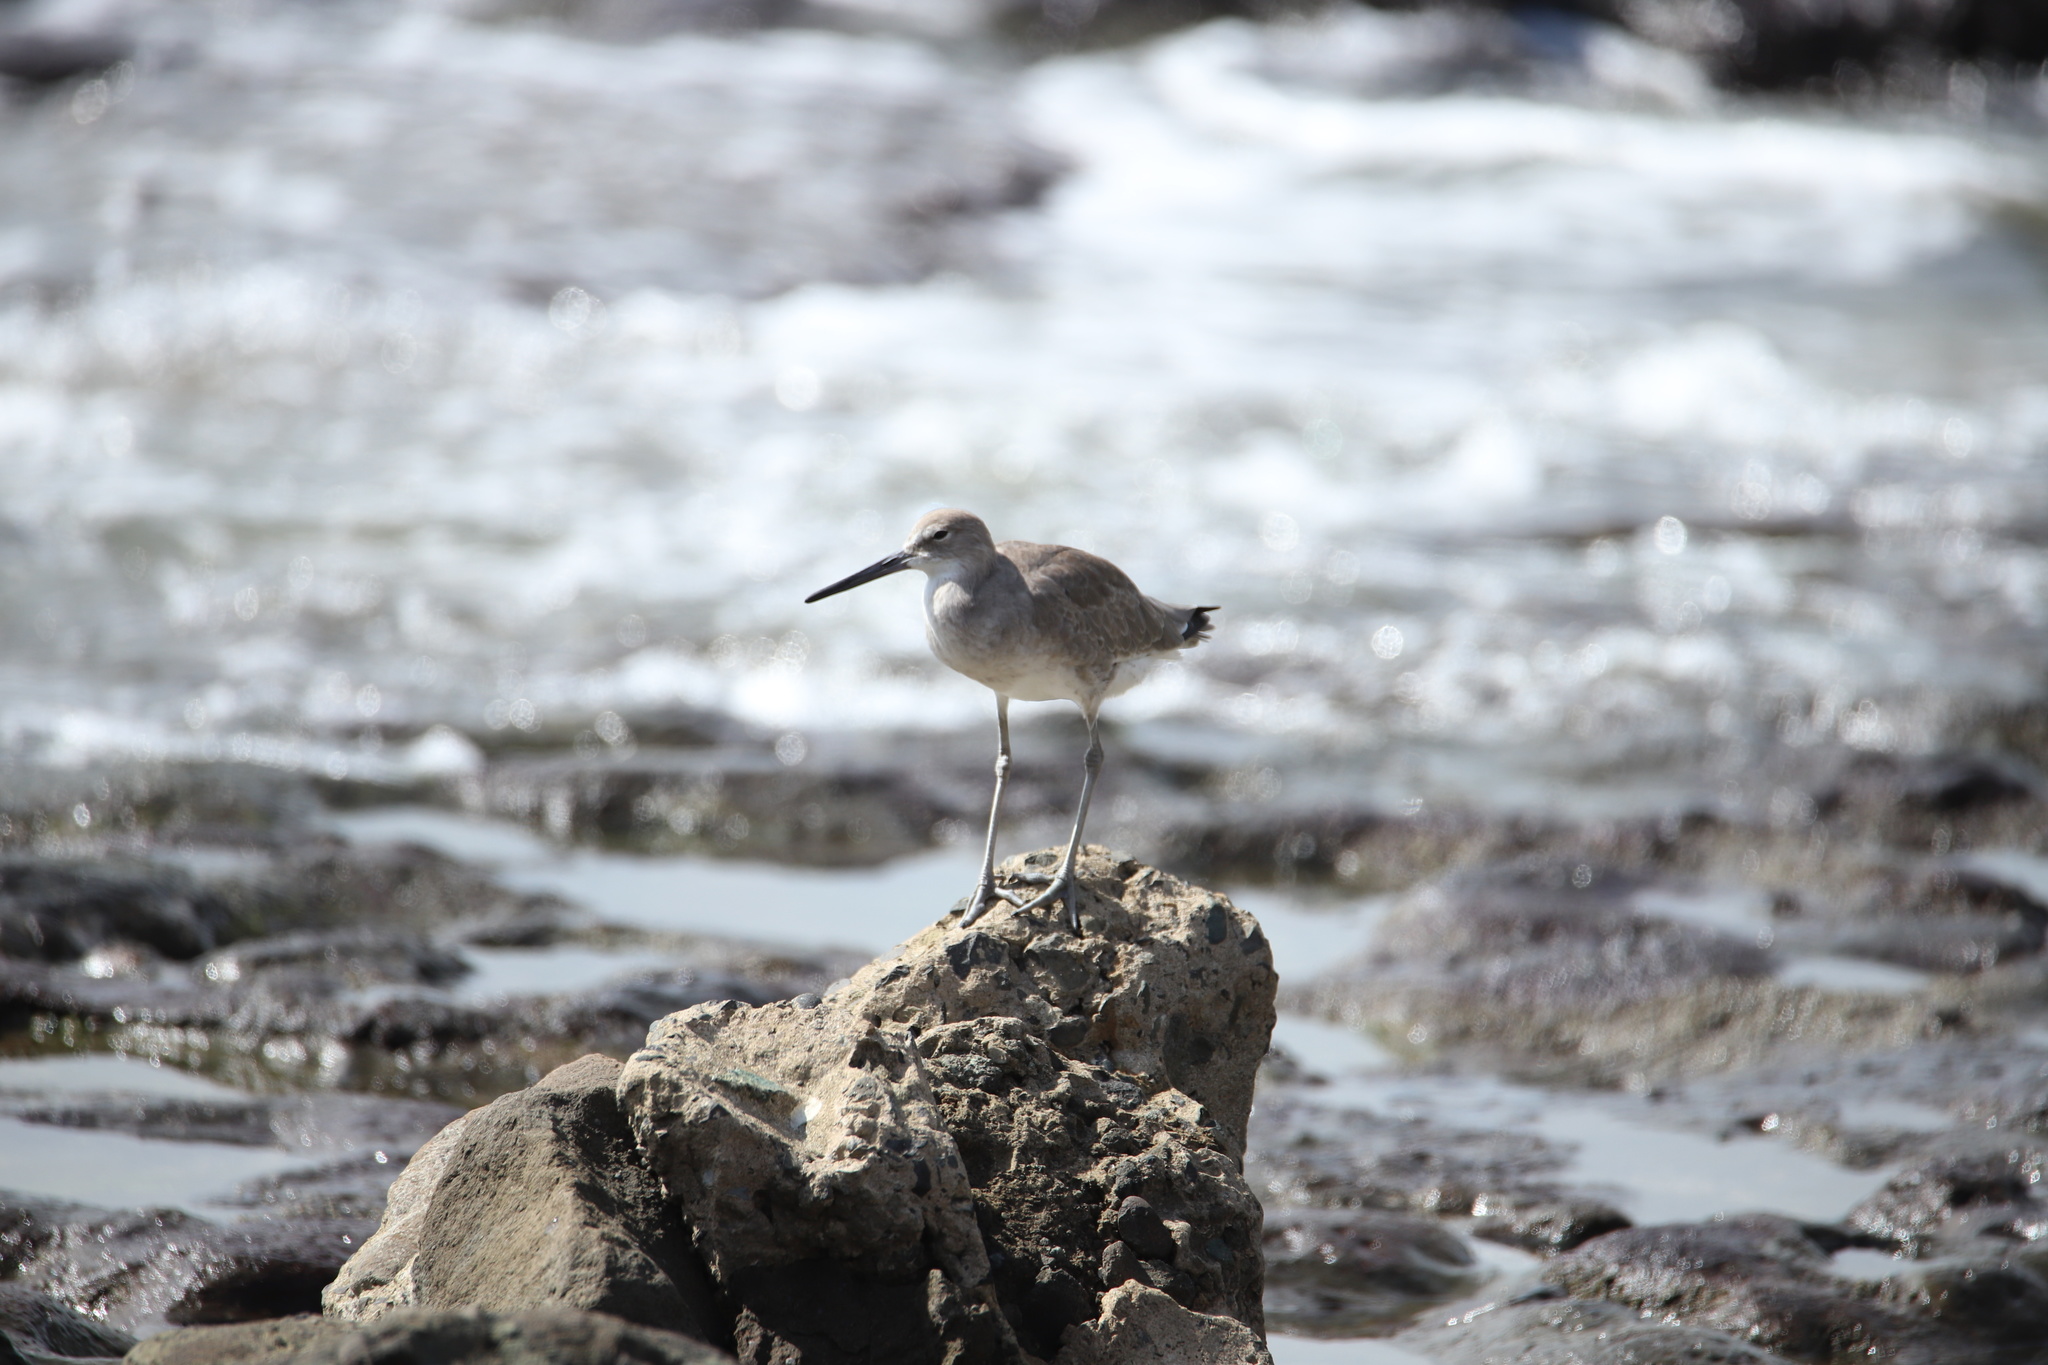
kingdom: Animalia
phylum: Chordata
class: Aves
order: Charadriiformes
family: Scolopacidae
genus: Tringa
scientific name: Tringa semipalmata
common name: Willet
